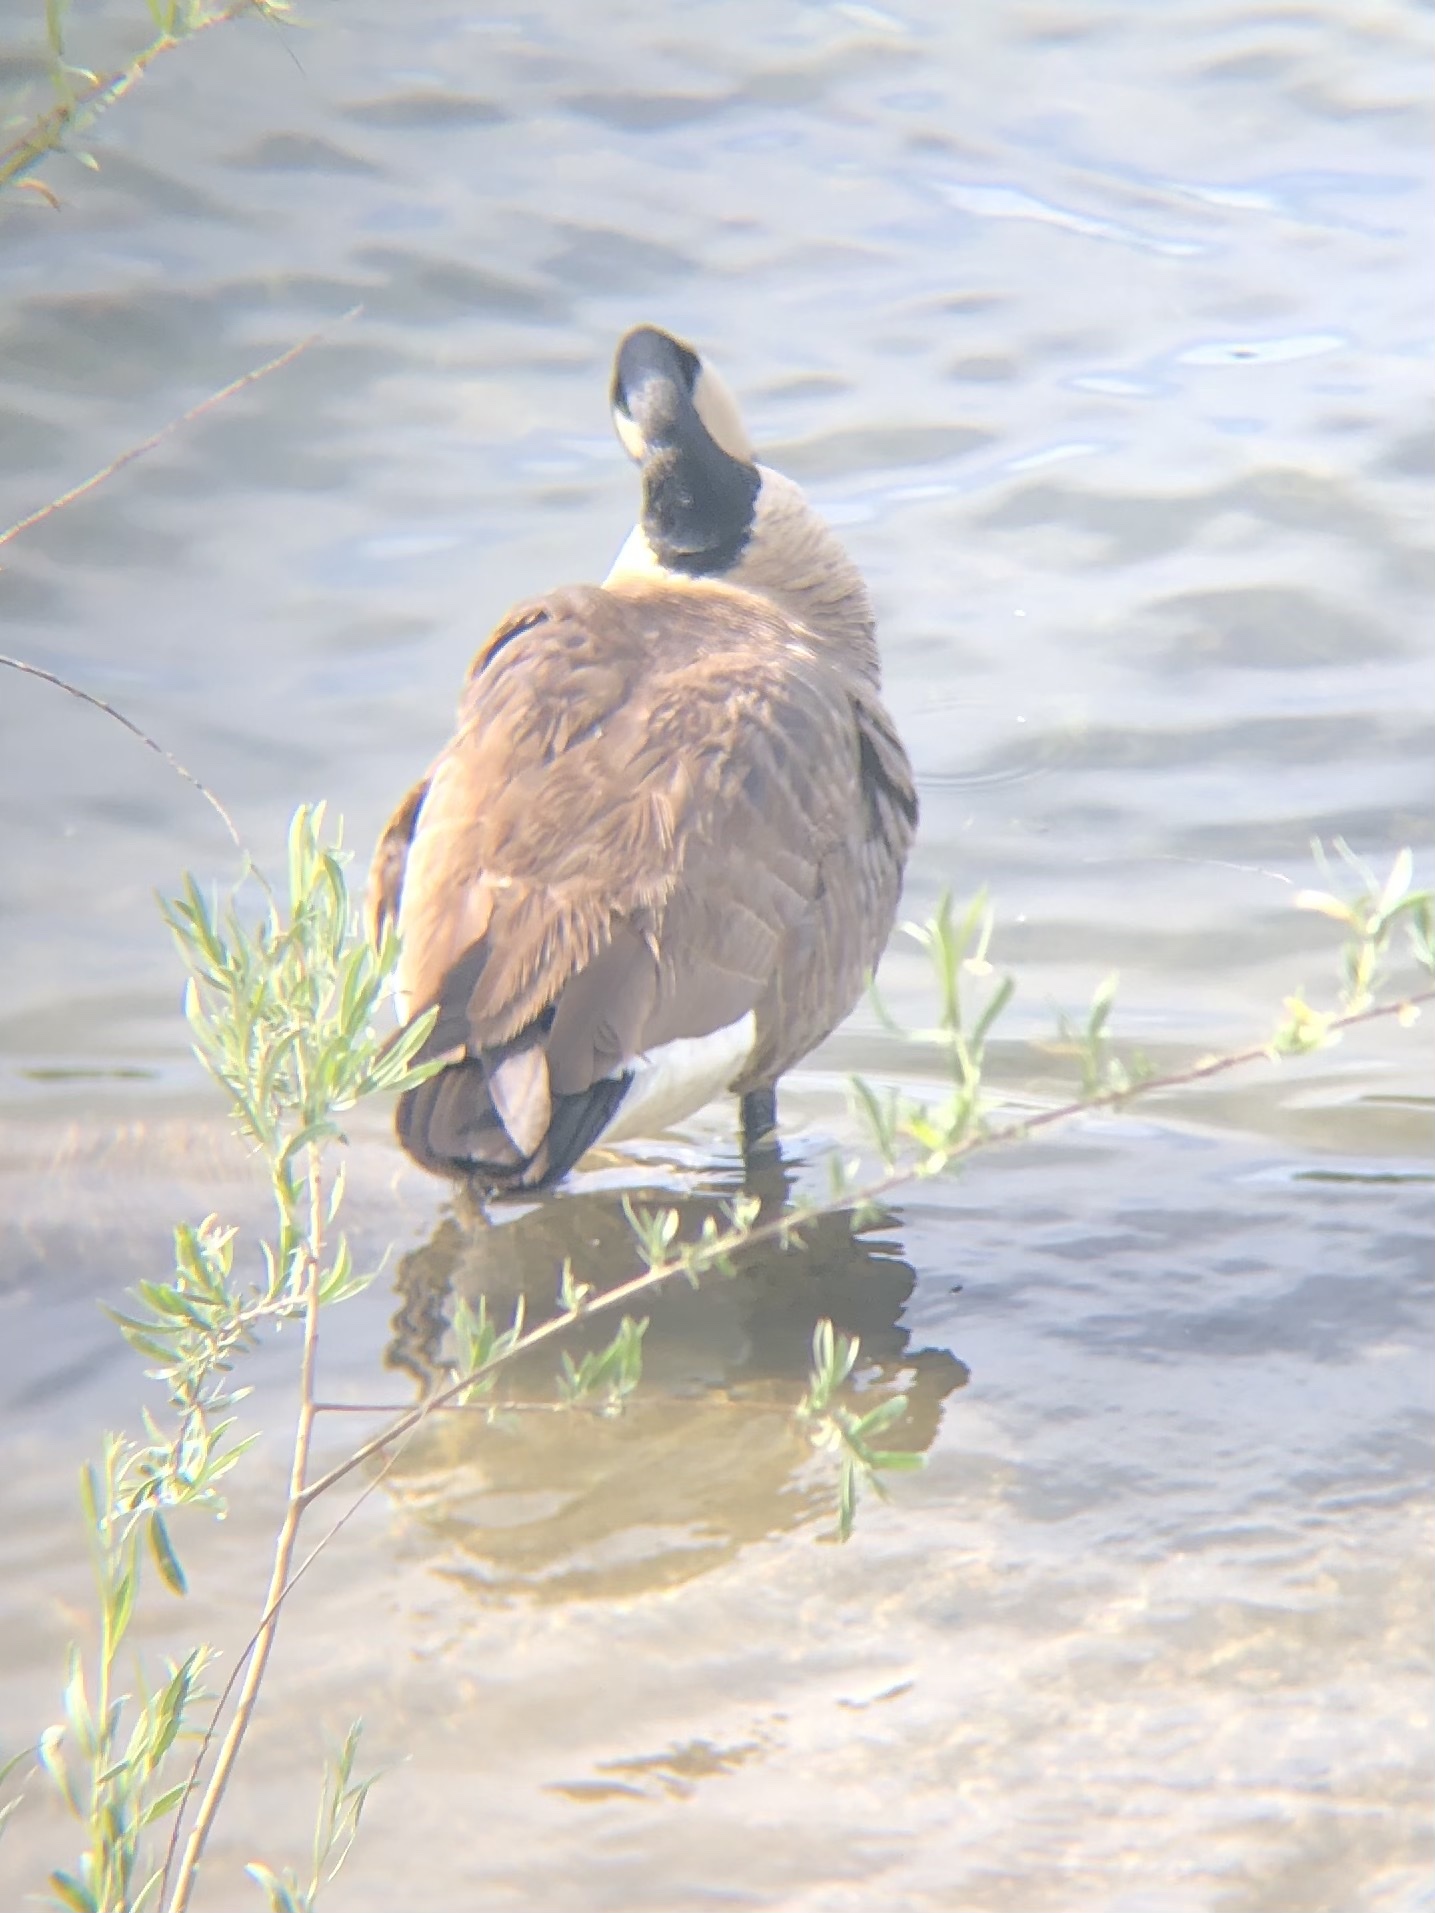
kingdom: Animalia
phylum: Chordata
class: Aves
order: Anseriformes
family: Anatidae
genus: Branta
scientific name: Branta canadensis
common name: Canada goose
